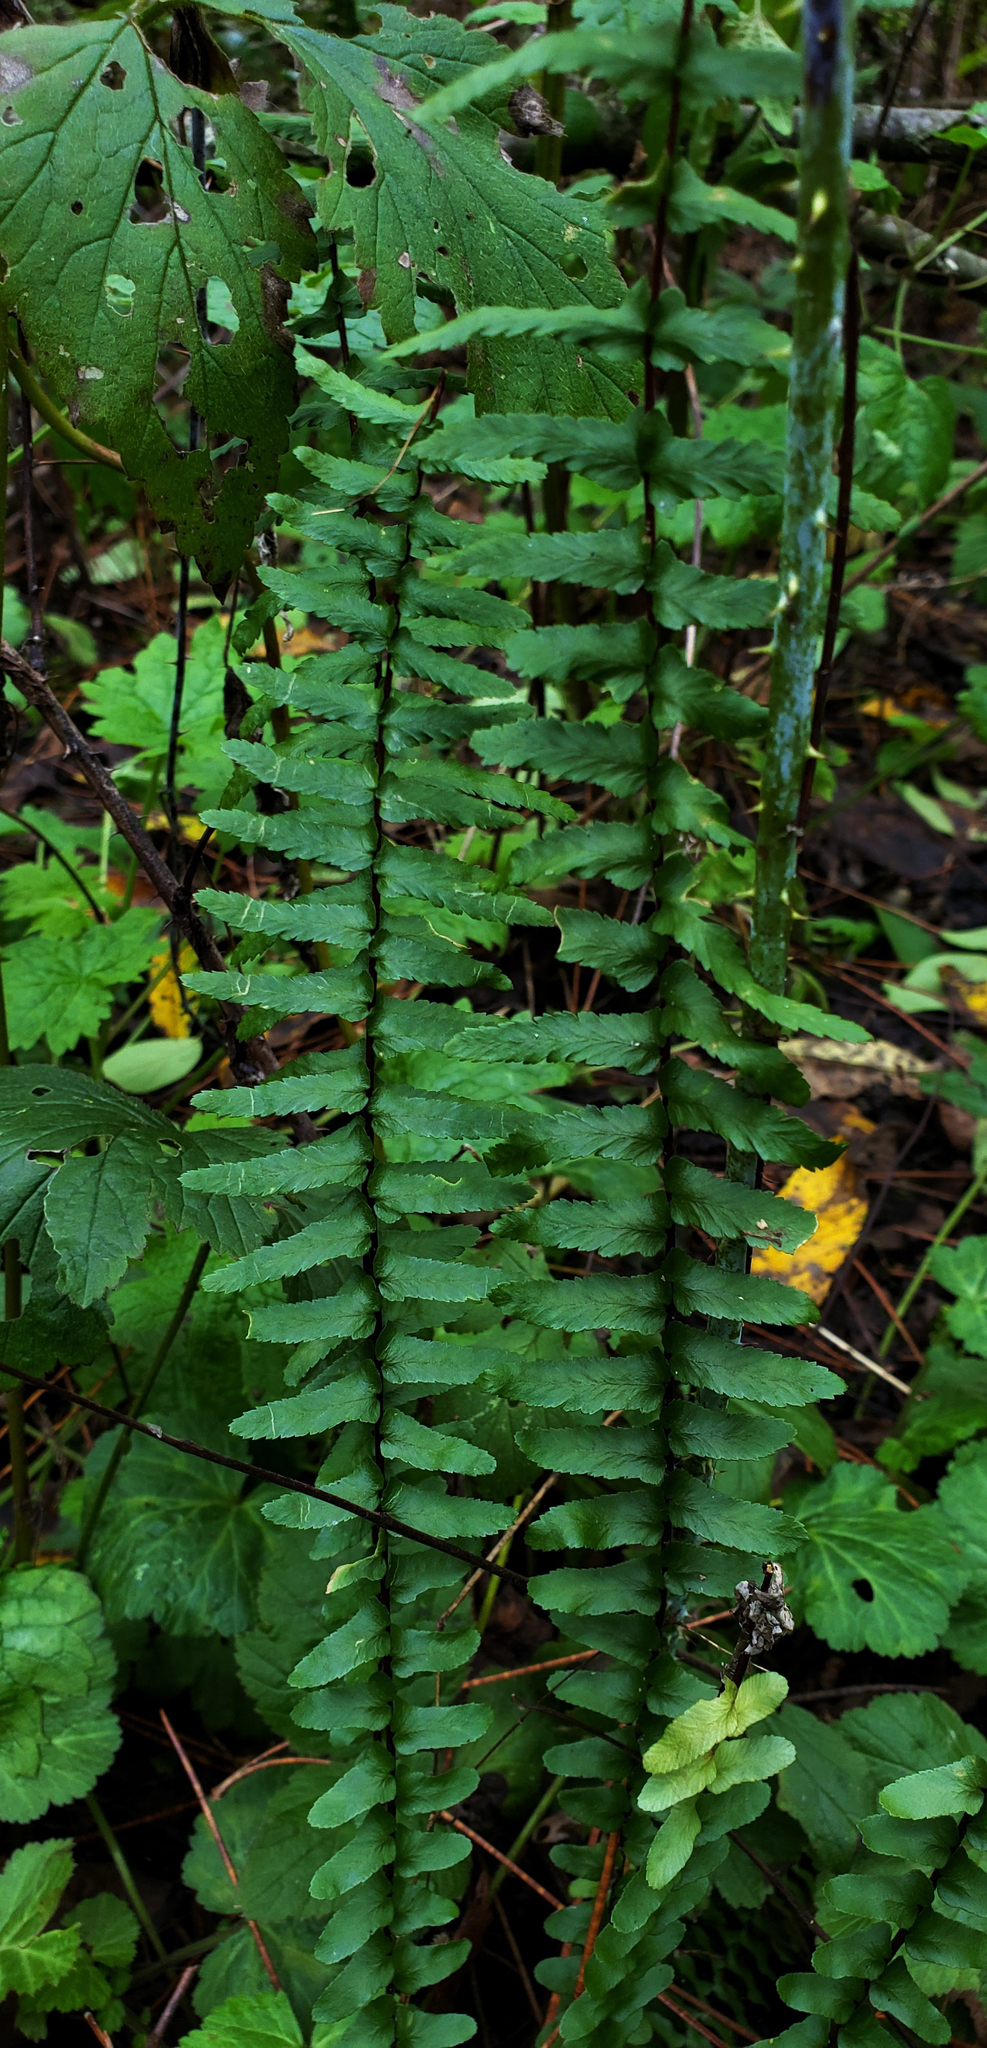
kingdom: Plantae
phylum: Tracheophyta
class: Polypodiopsida
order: Polypodiales
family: Aspleniaceae
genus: Asplenium
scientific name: Asplenium platyneuron
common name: Ebony spleenwort
